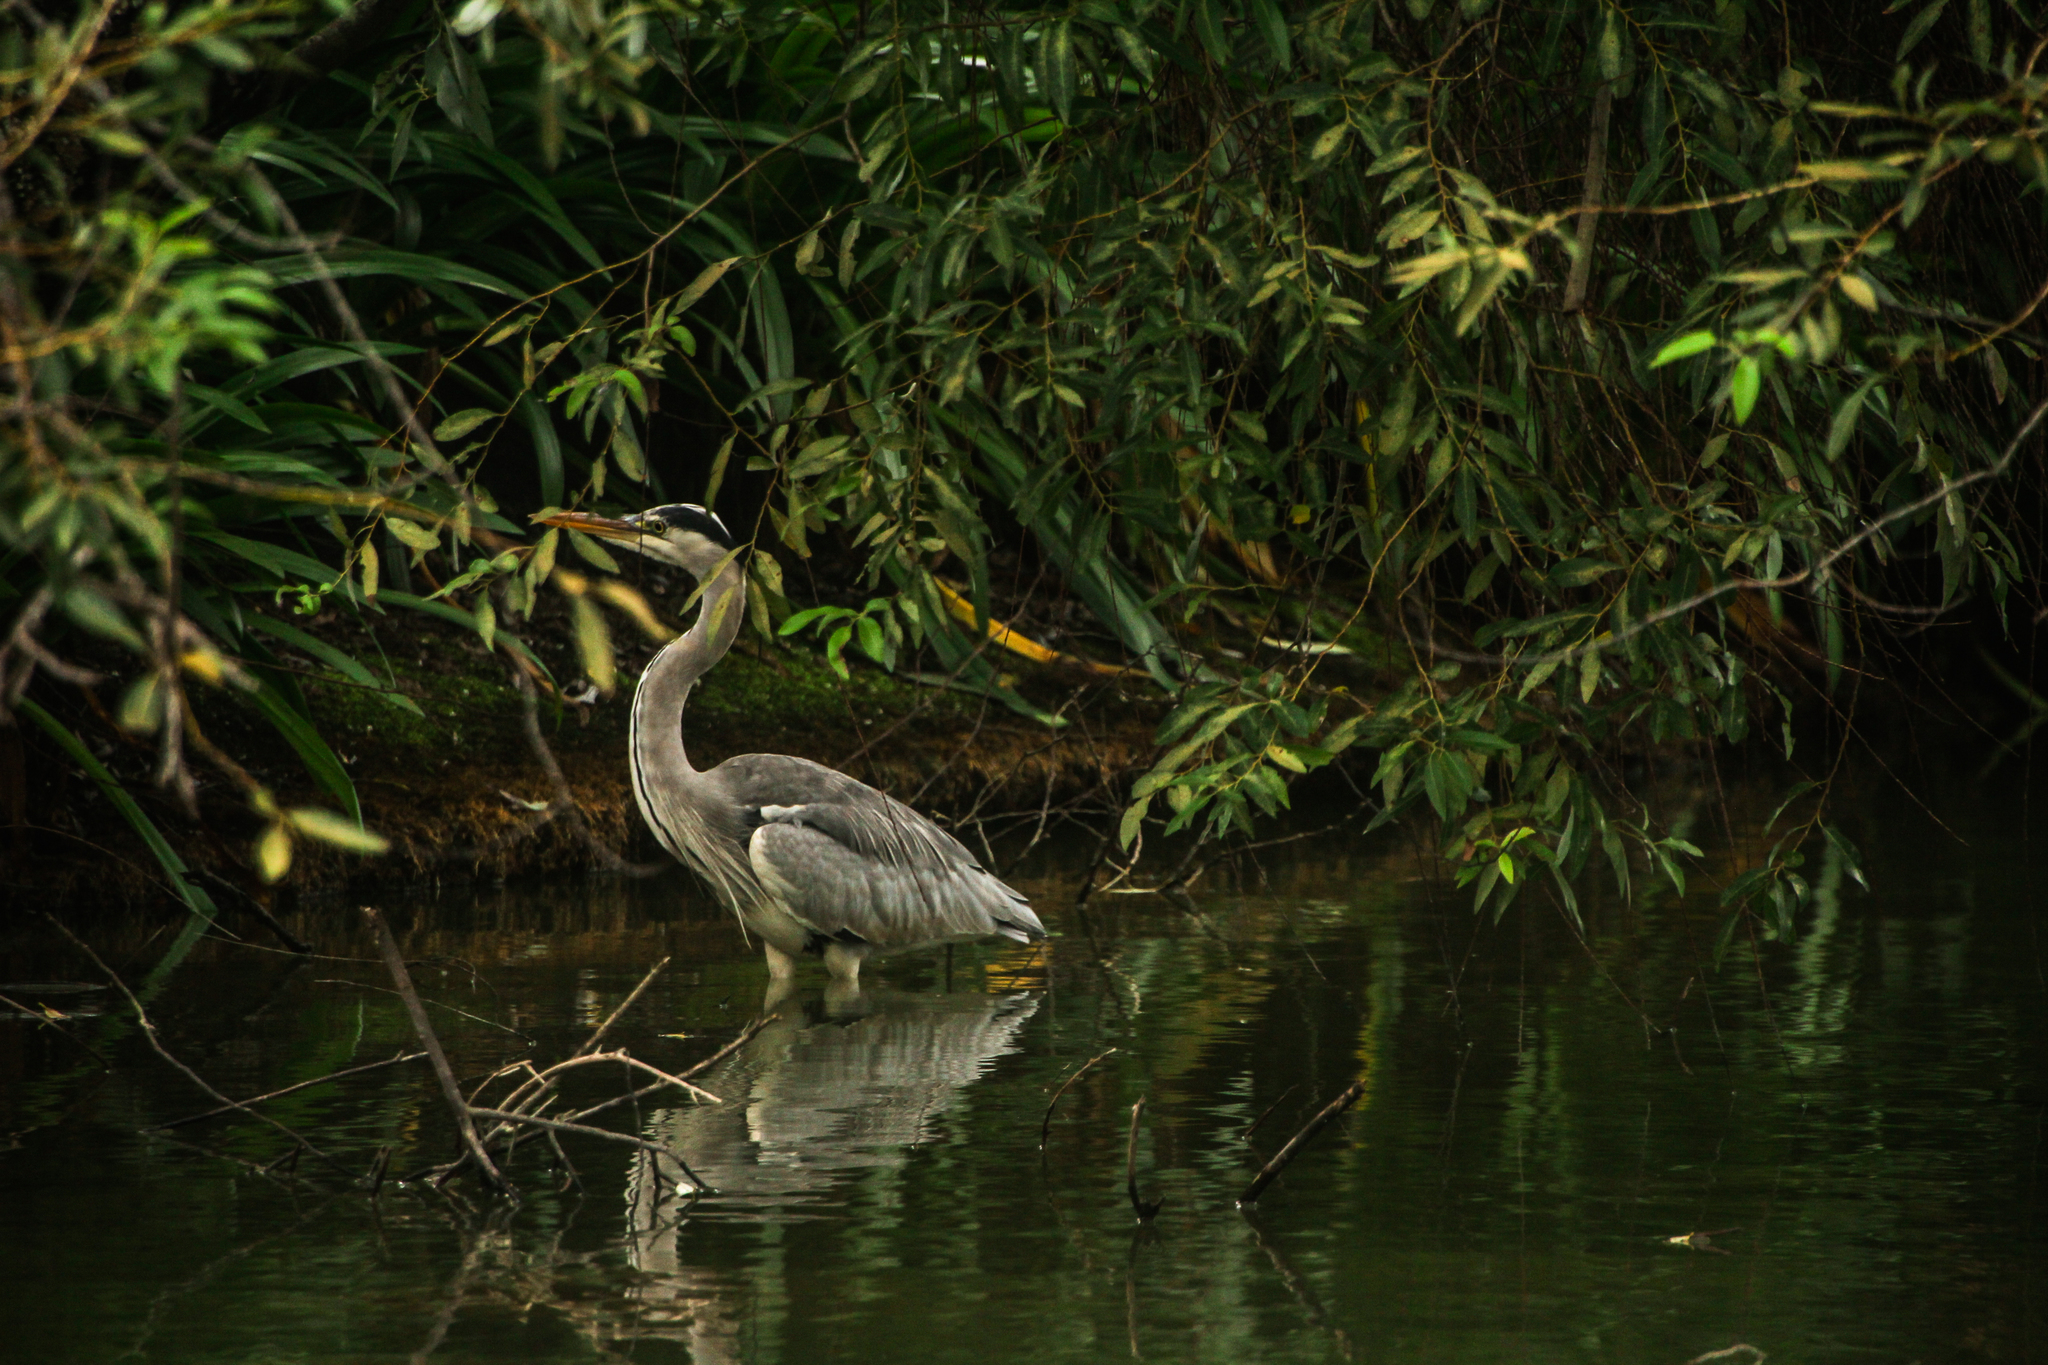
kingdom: Animalia
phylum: Chordata
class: Aves
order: Pelecaniformes
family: Ardeidae
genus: Ardea
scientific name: Ardea cinerea
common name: Grey heron
